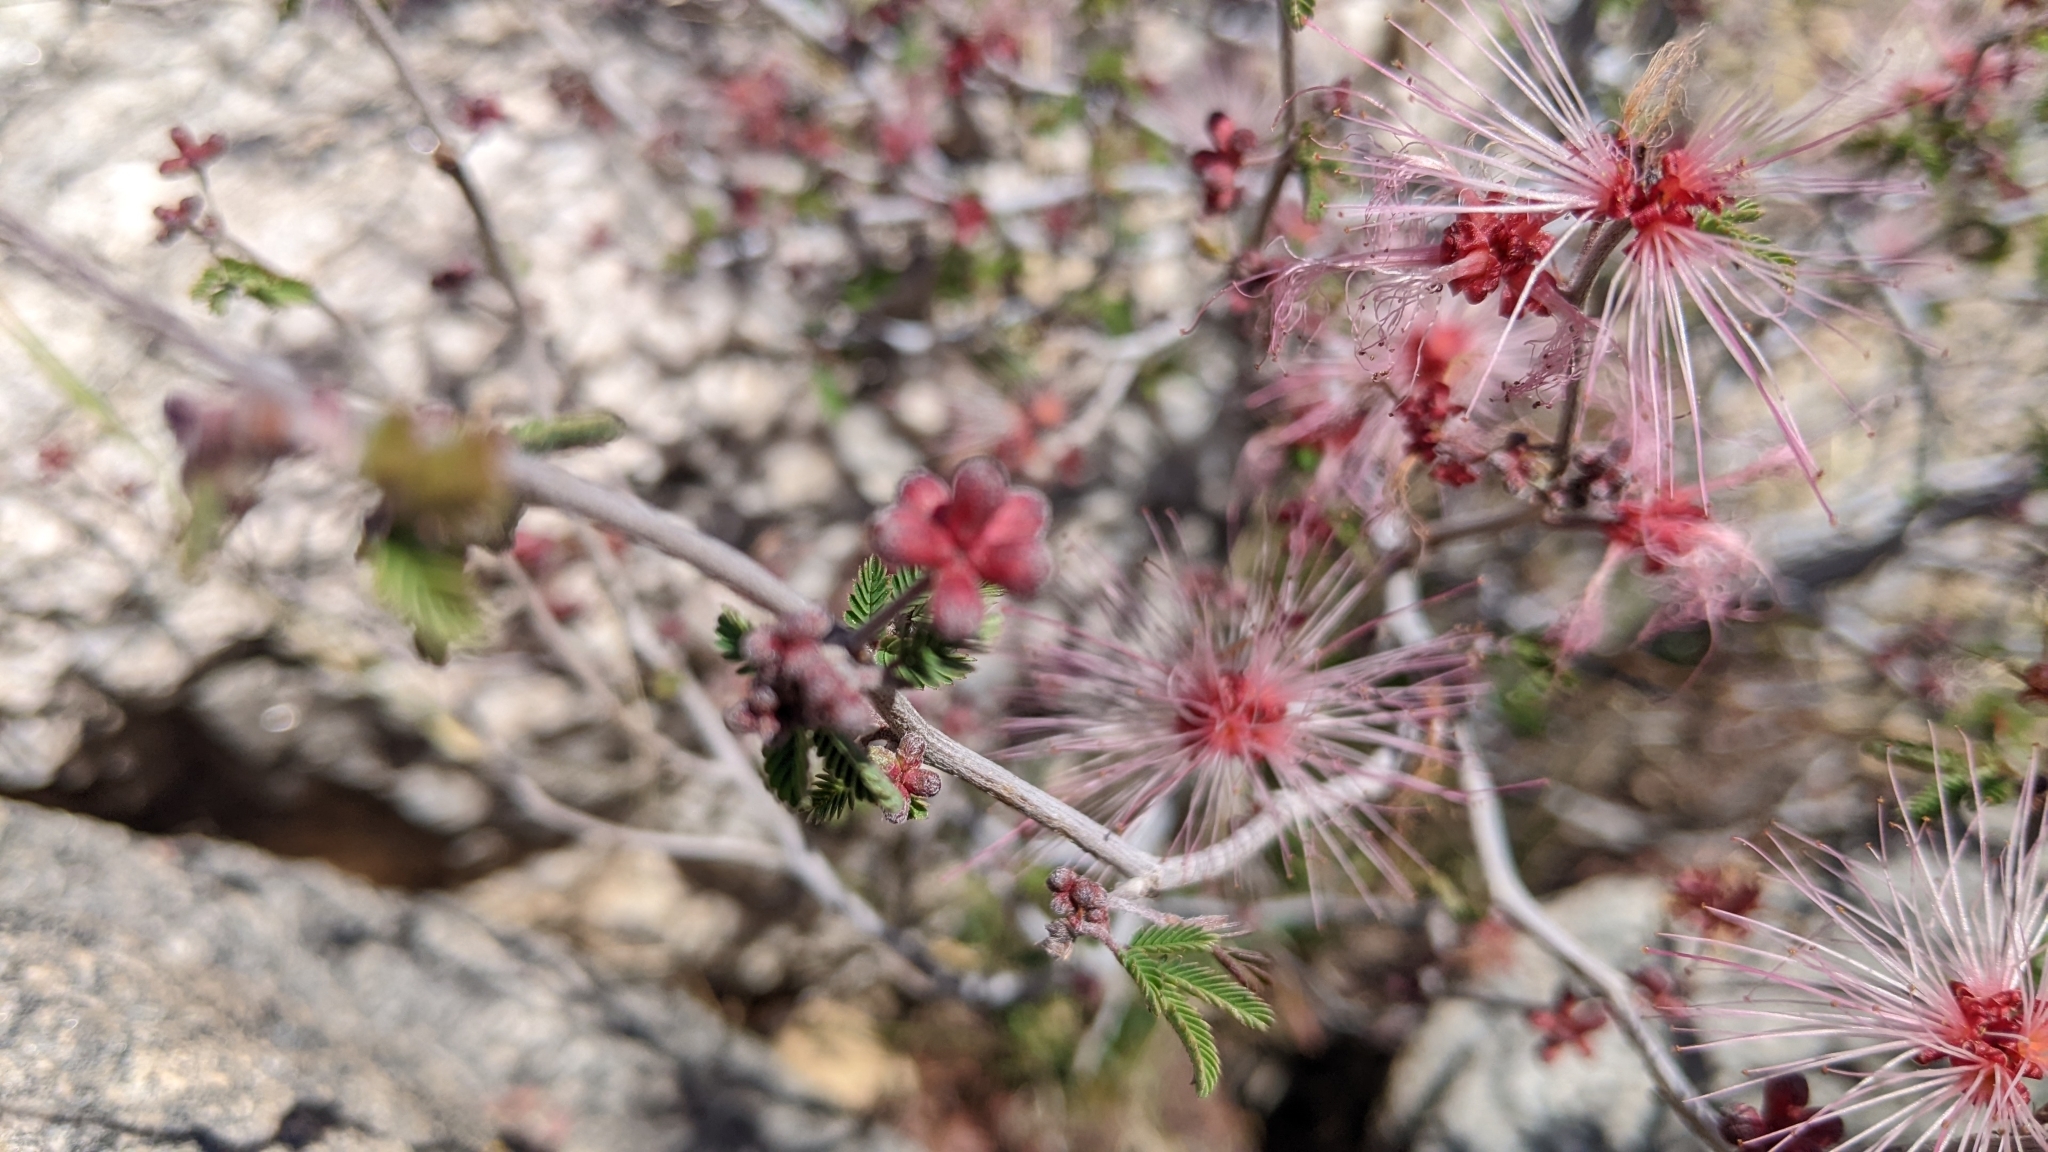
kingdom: Plantae
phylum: Tracheophyta
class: Magnoliopsida
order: Fabales
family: Fabaceae
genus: Calliandra
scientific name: Calliandra eriophylla
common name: Fairy-duster
